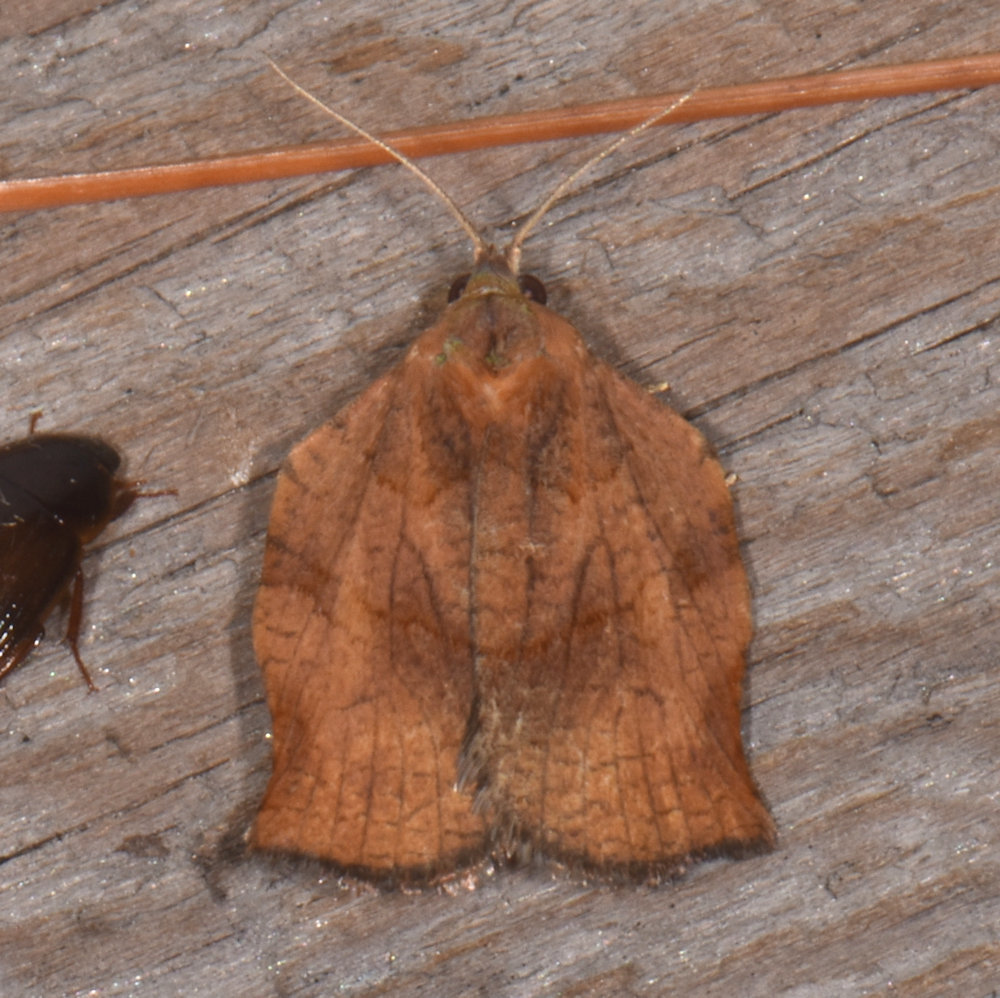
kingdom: Animalia
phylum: Arthropoda
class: Insecta
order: Lepidoptera
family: Tortricidae
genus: Archips
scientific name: Archips purpurana
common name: Omnivorous leafroller
